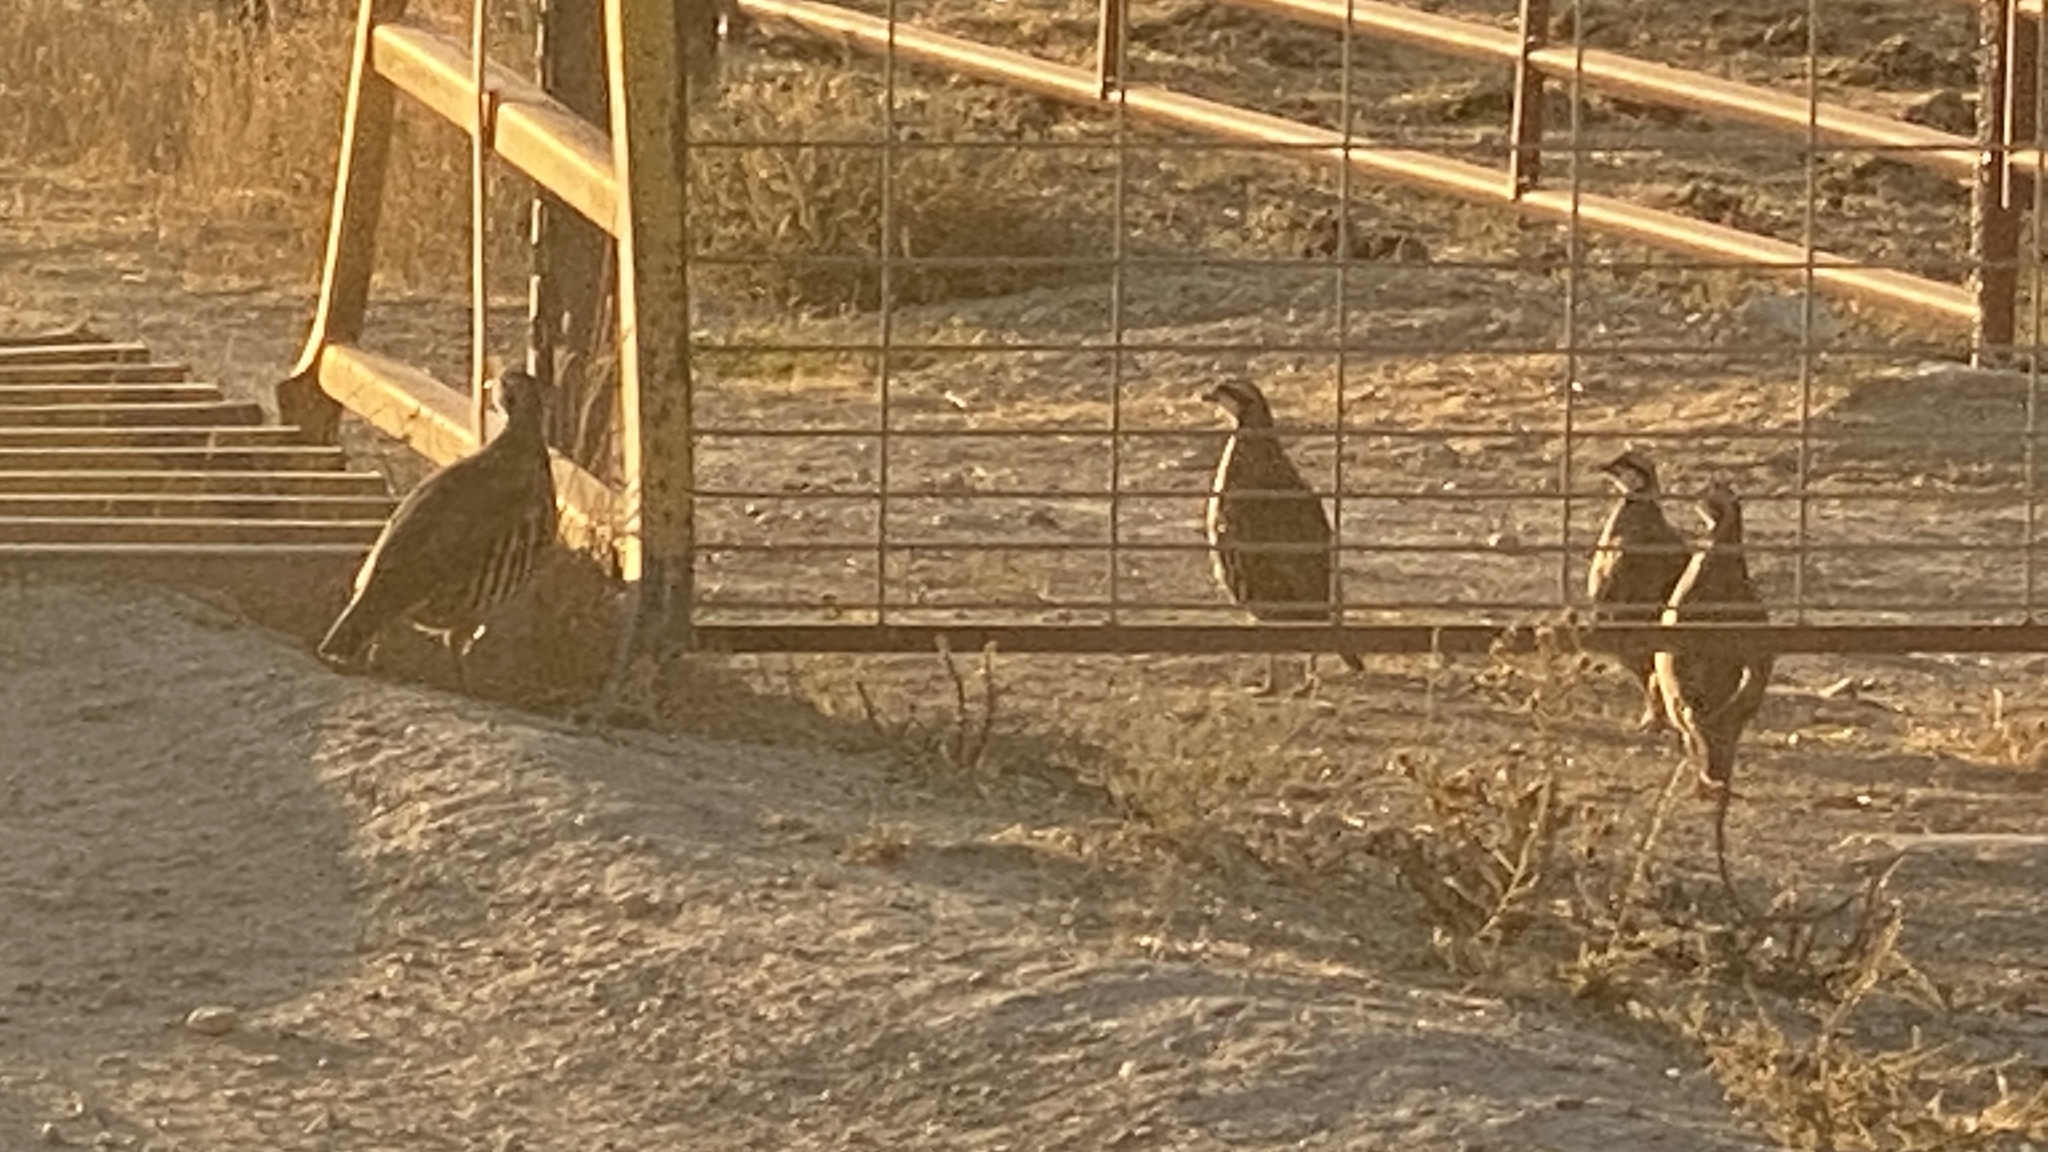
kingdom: Animalia
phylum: Chordata
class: Aves
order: Galliformes
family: Phasianidae
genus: Alectoris
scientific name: Alectoris chukar
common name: Chukar
